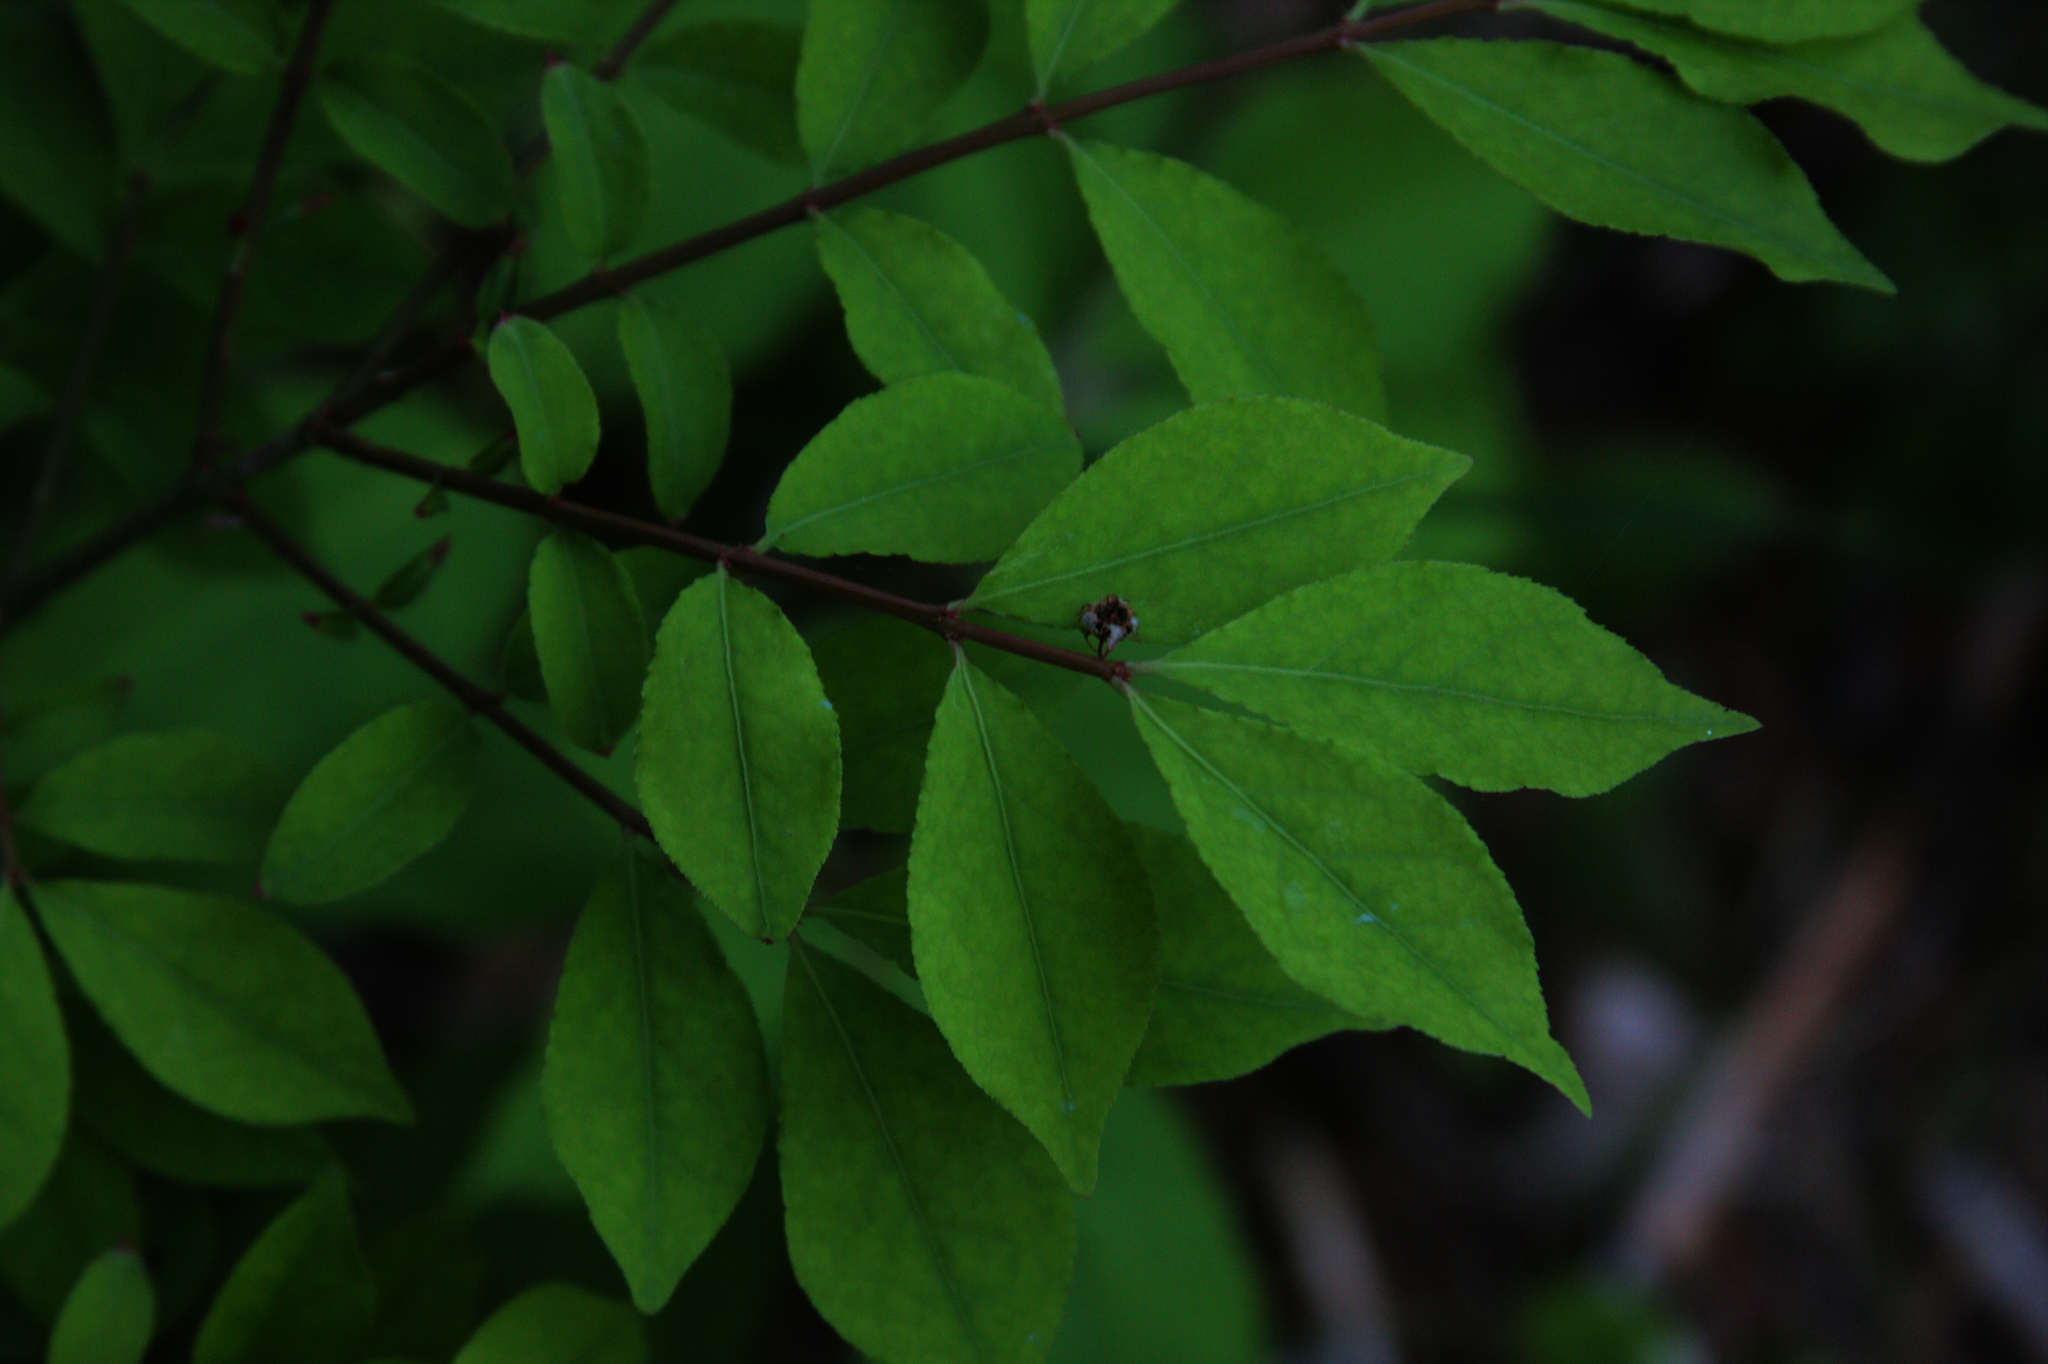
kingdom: Plantae
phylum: Tracheophyta
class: Magnoliopsida
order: Celastrales
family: Celastraceae
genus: Euonymus
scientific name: Euonymus alatus
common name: Winged euonymus
